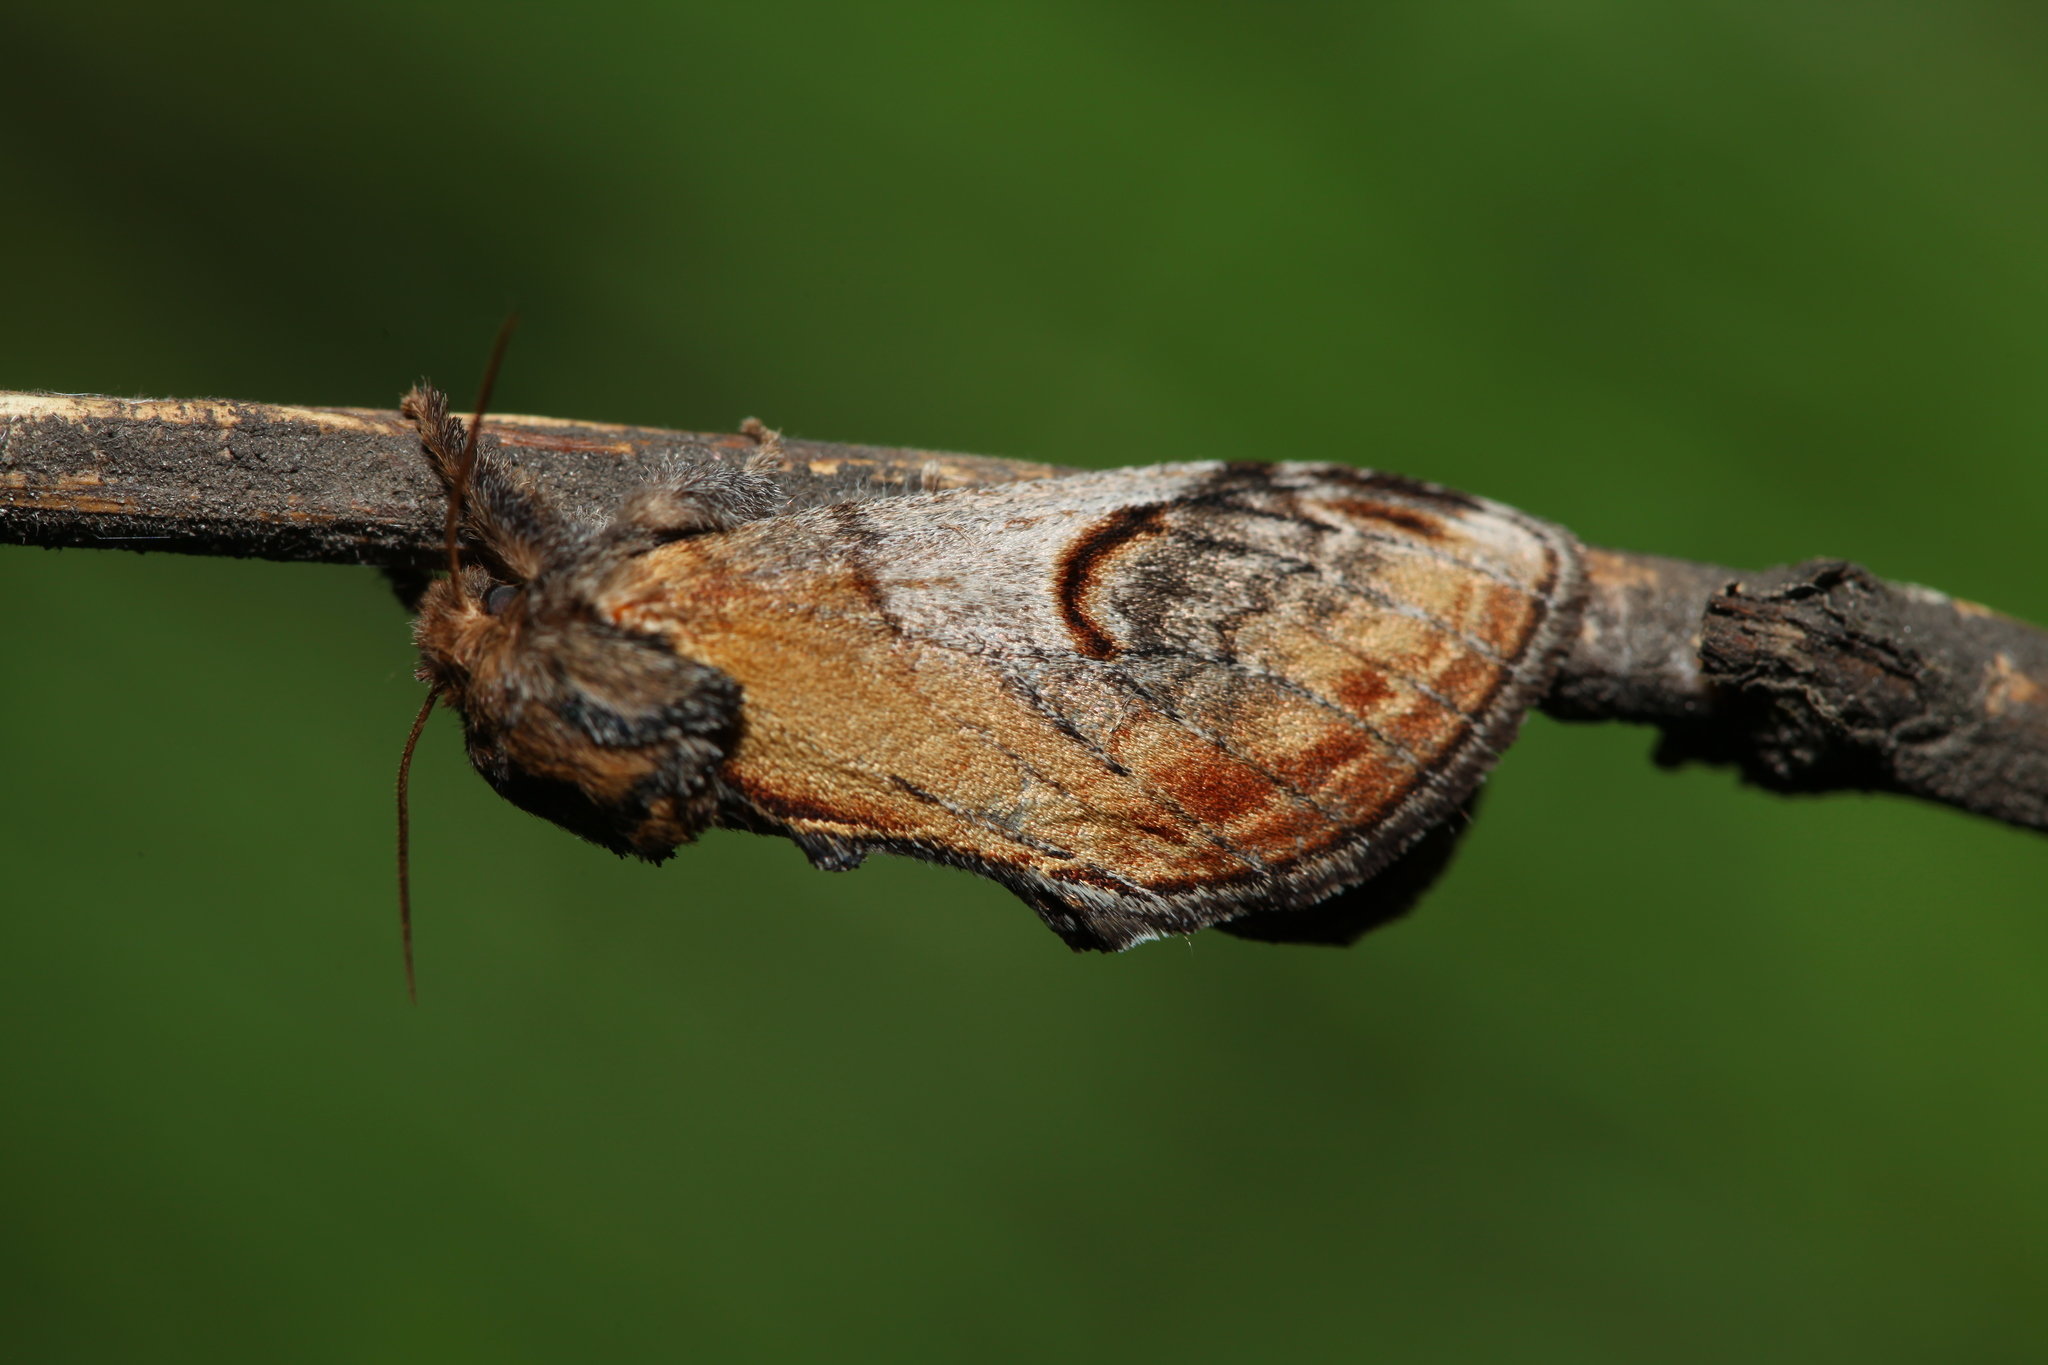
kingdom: Animalia
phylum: Arthropoda
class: Insecta
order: Lepidoptera
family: Notodontidae
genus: Notodonta
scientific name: Notodonta ziczac
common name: Pebble prominent
